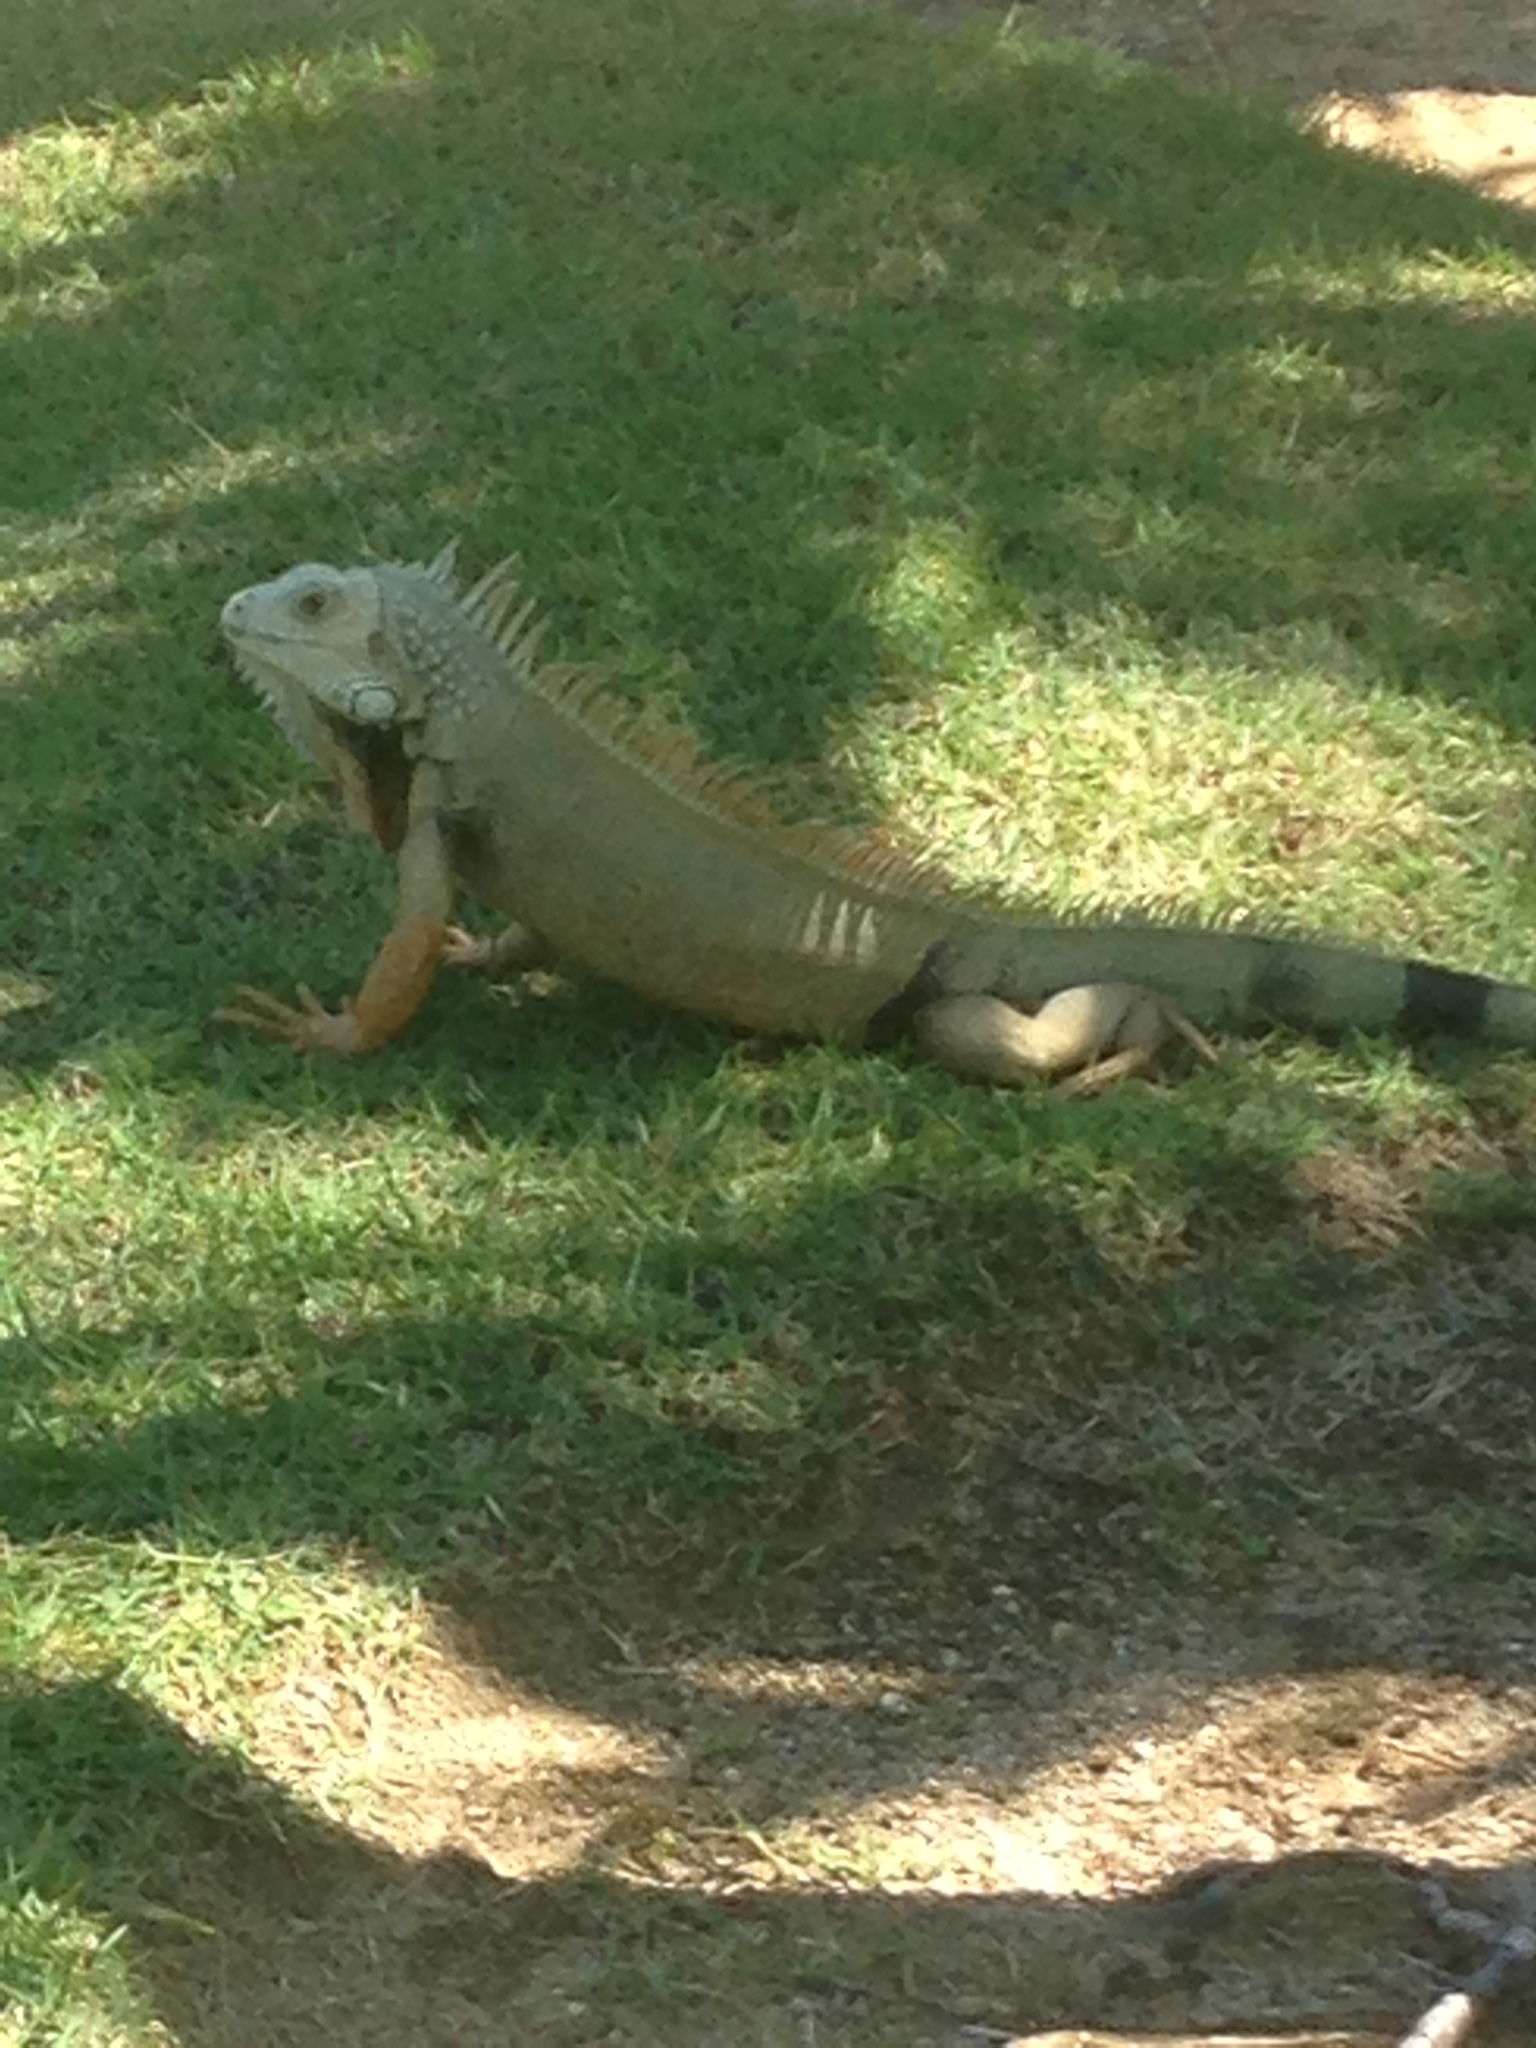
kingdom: Animalia
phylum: Chordata
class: Squamata
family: Iguanidae
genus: Iguana
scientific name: Iguana iguana
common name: Green iguana
